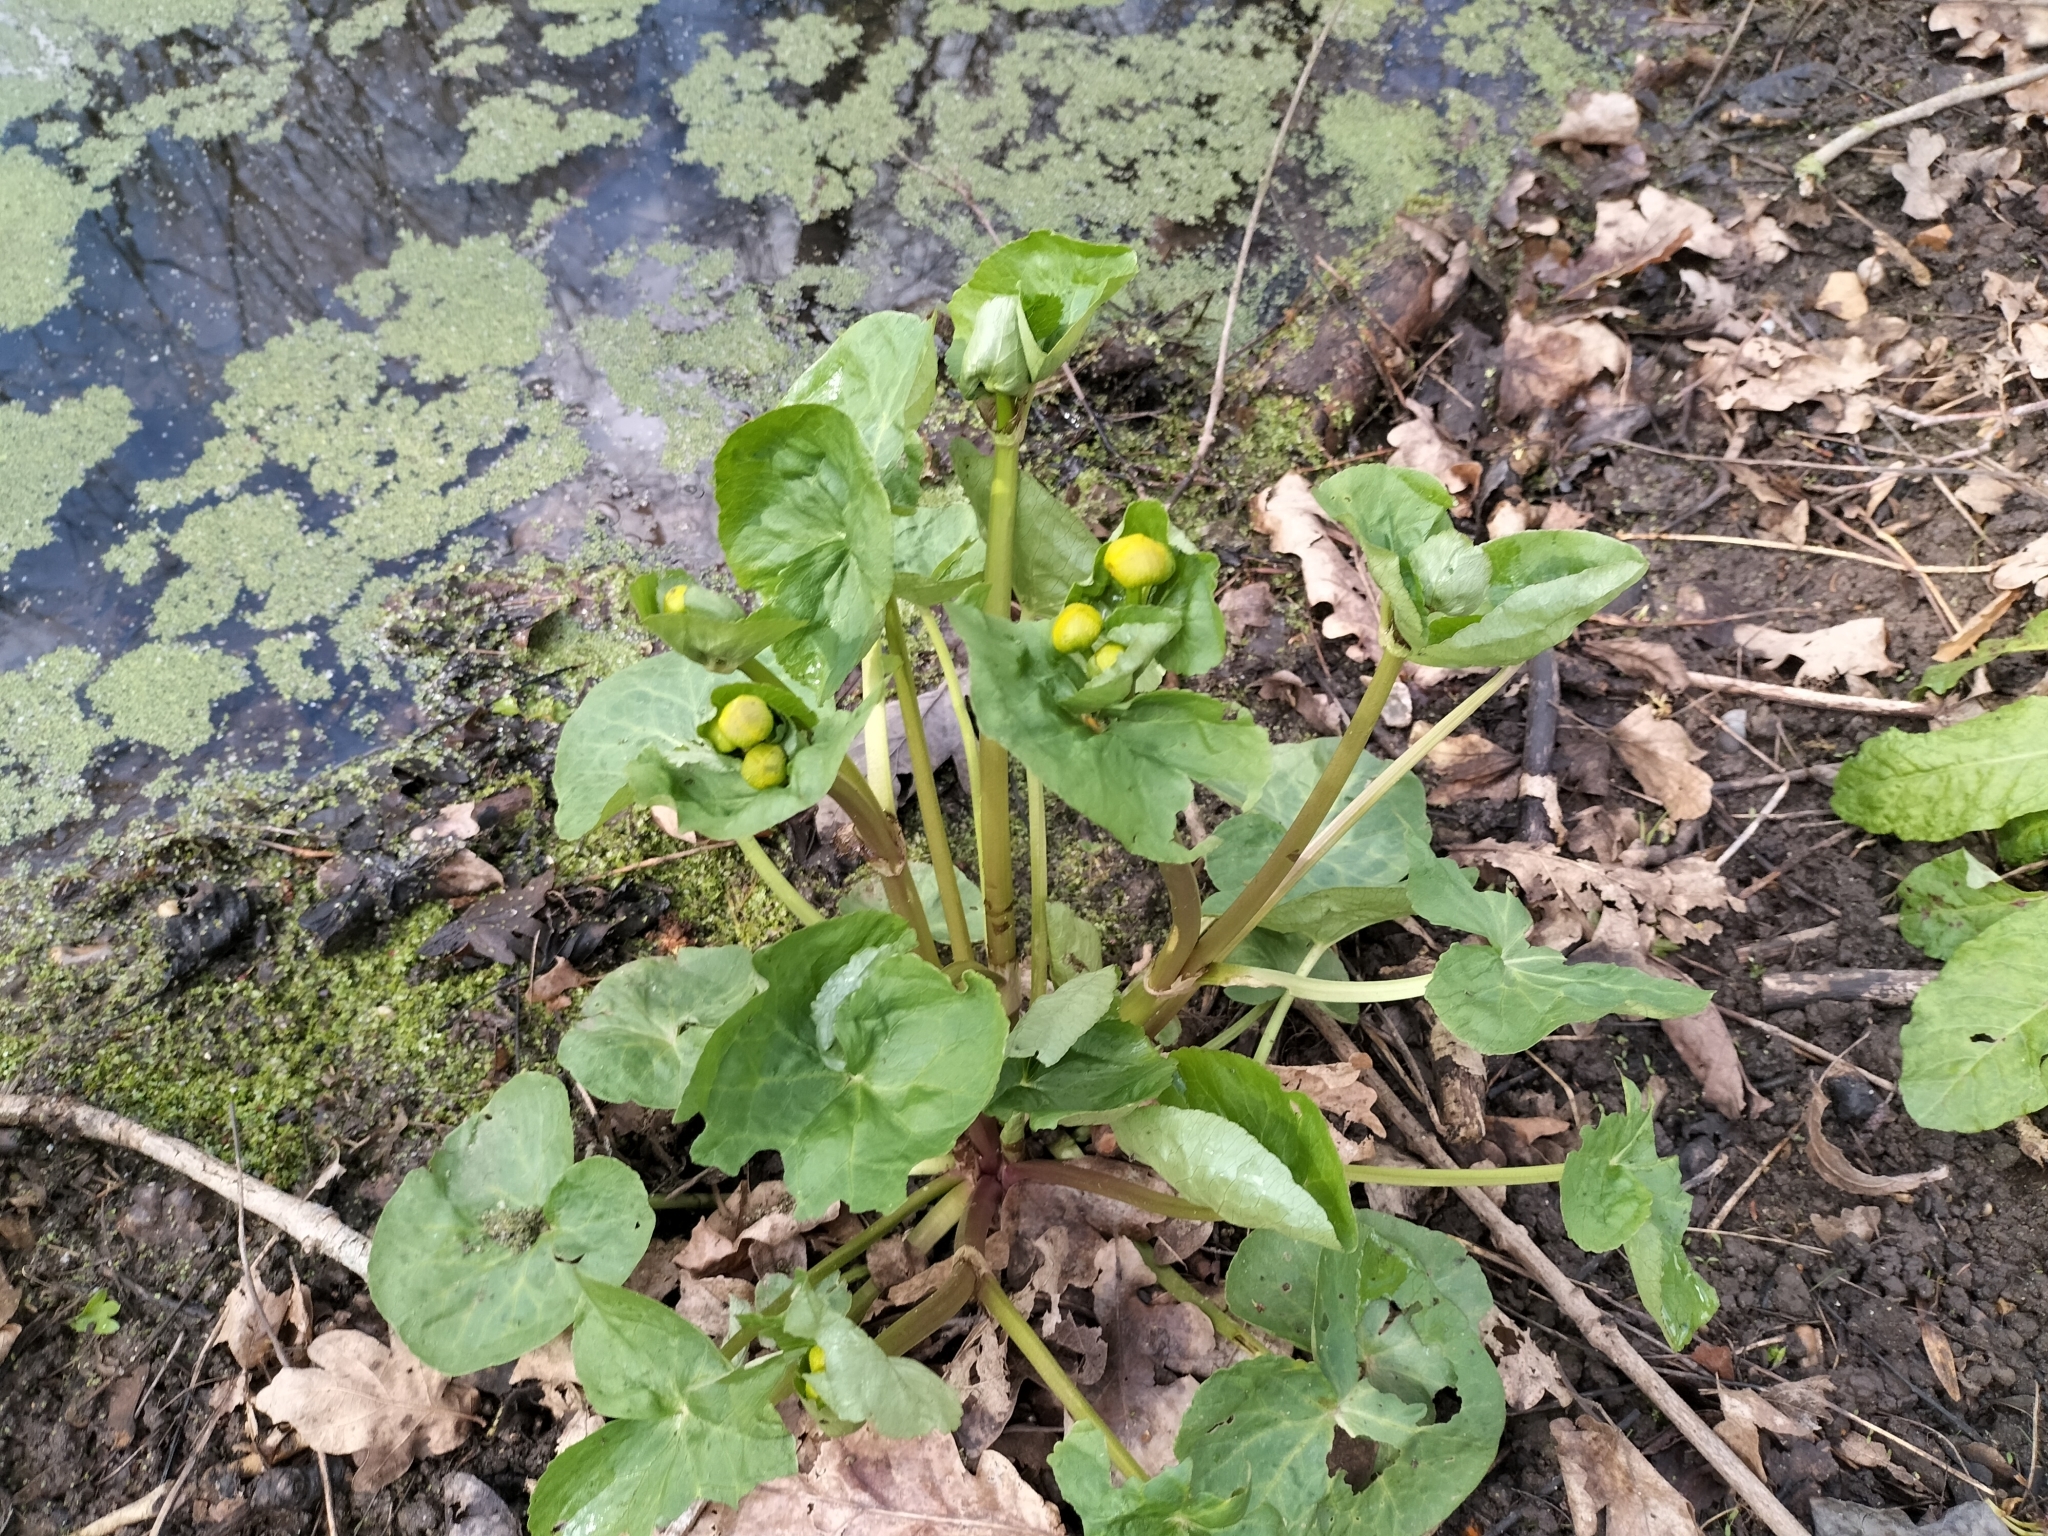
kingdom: Plantae
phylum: Tracheophyta
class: Magnoliopsida
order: Ranunculales
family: Ranunculaceae
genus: Caltha
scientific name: Caltha palustris
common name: Marsh marigold
